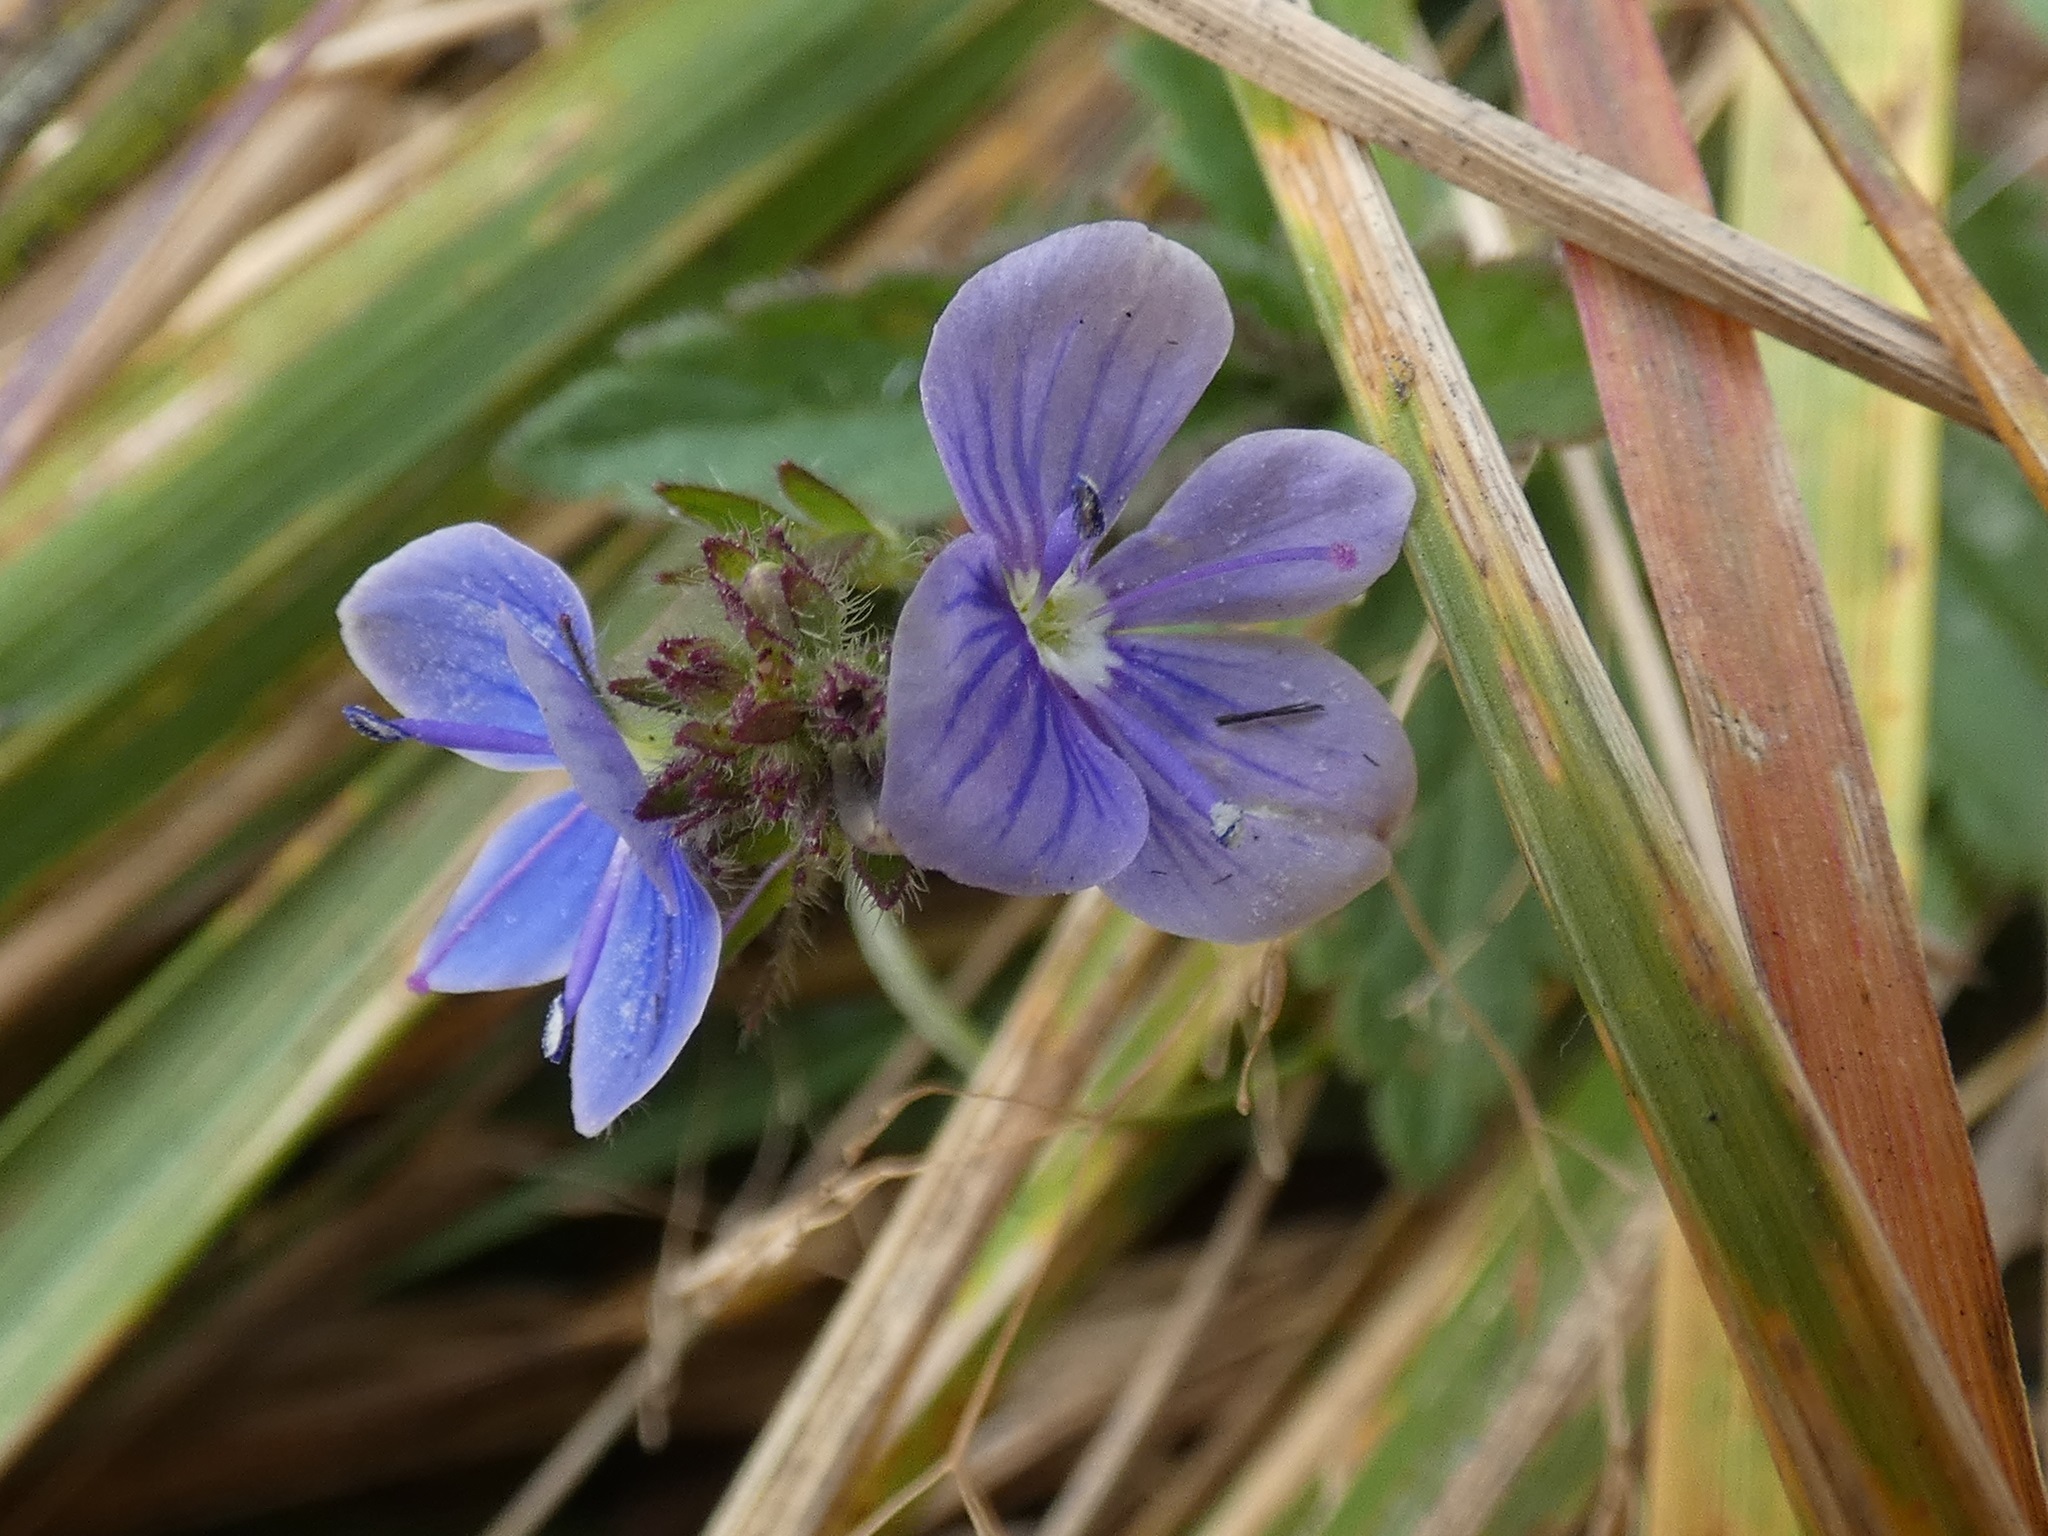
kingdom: Plantae
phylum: Tracheophyta
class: Magnoliopsida
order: Lamiales
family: Plantaginaceae
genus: Veronica
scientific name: Veronica chamaedrys
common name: Germander speedwell
